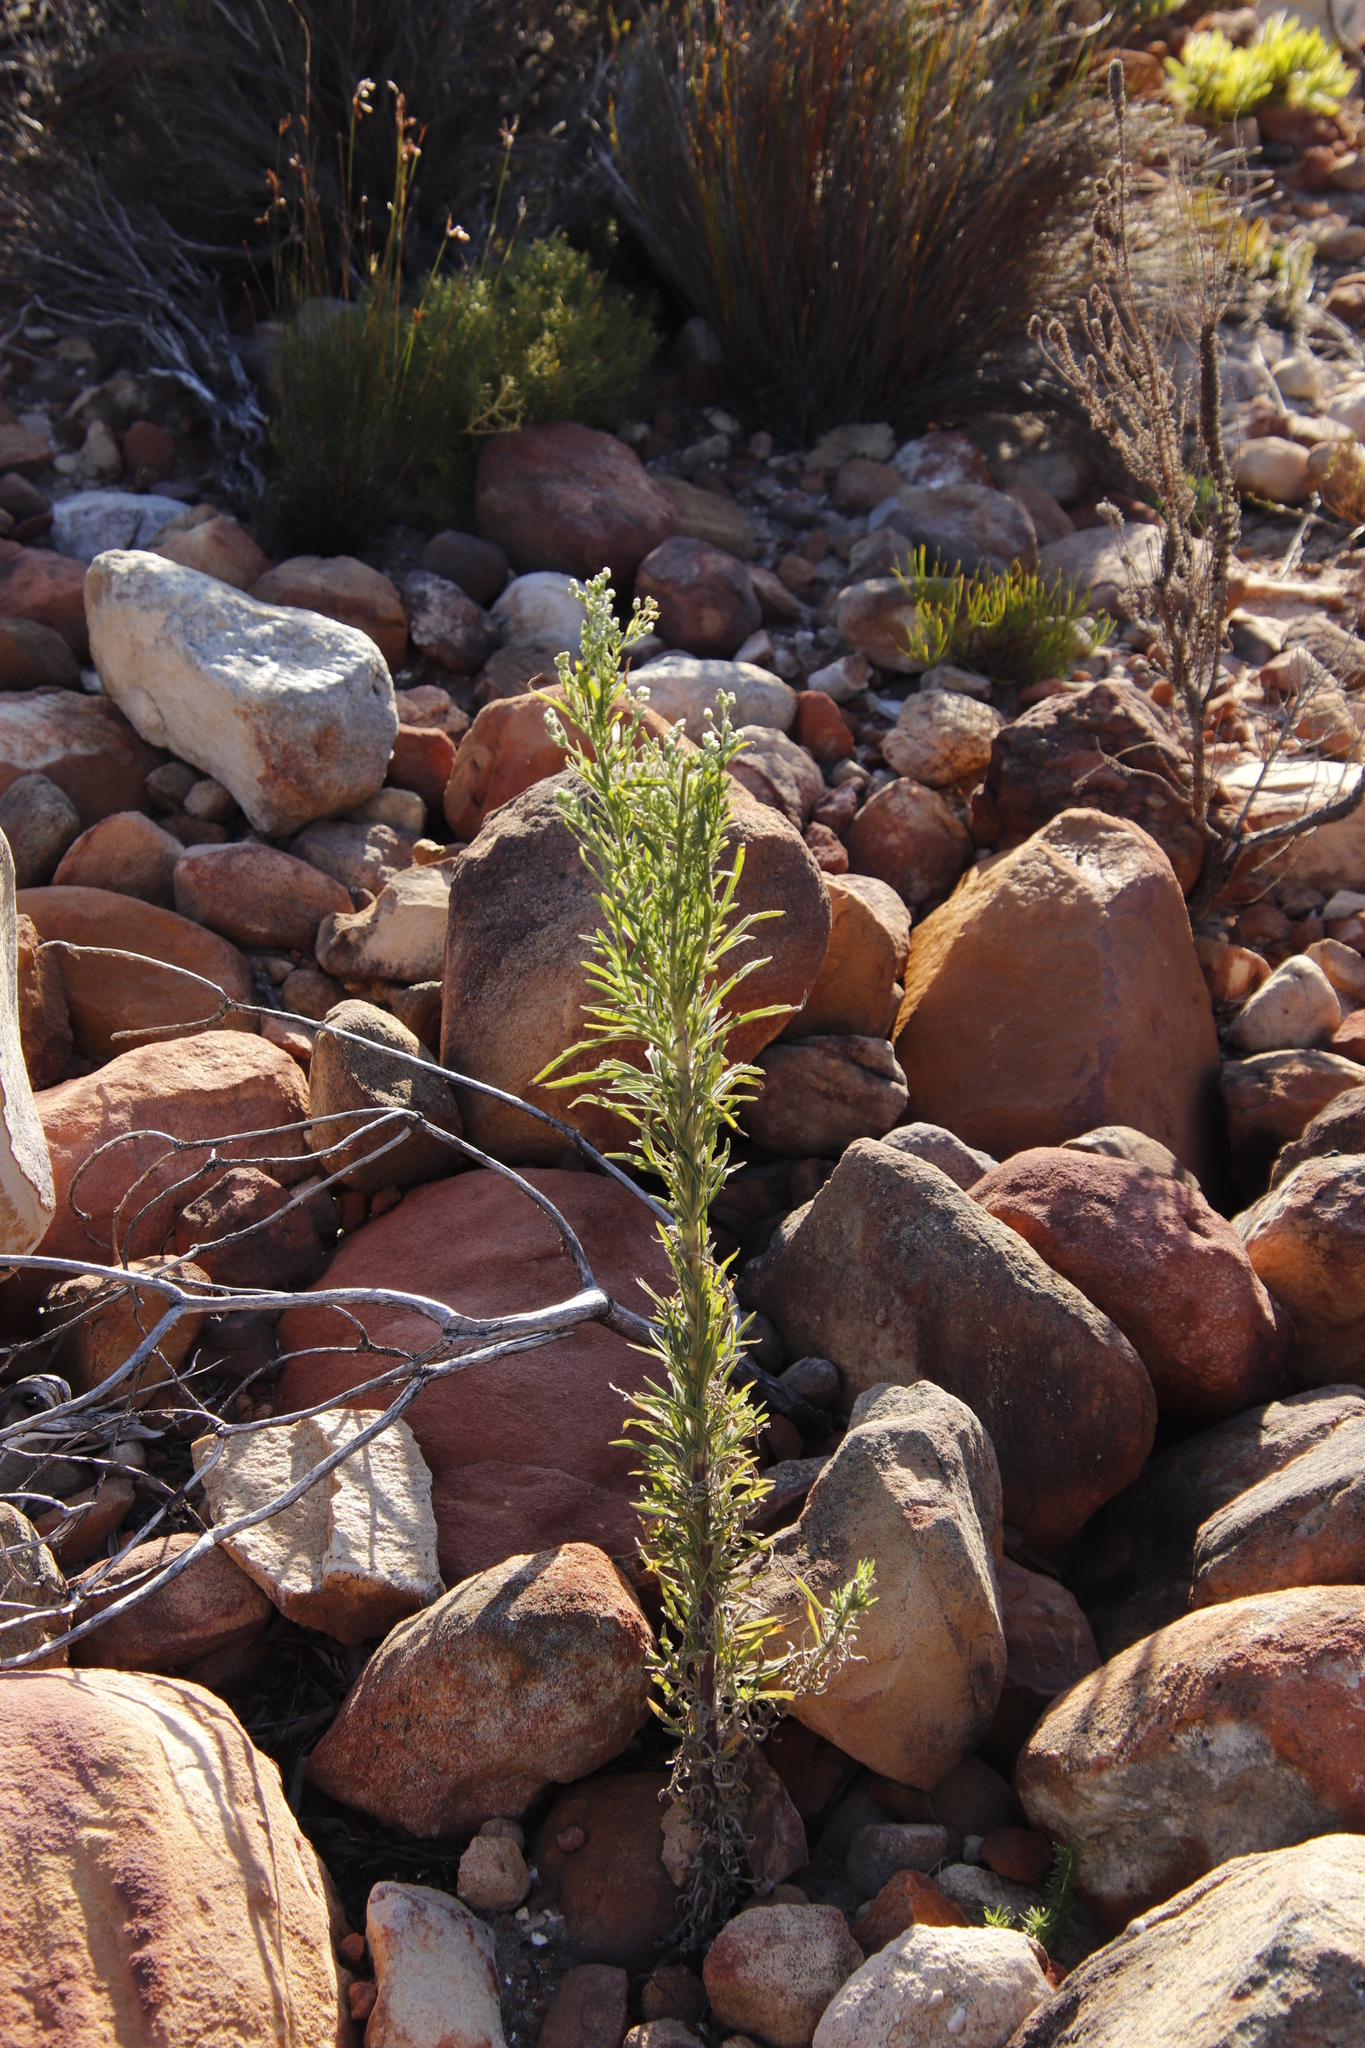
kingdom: Plantae
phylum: Tracheophyta
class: Magnoliopsida
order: Asterales
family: Asteraceae
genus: Erigeron
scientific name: Erigeron sumatrensis
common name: Daisy
